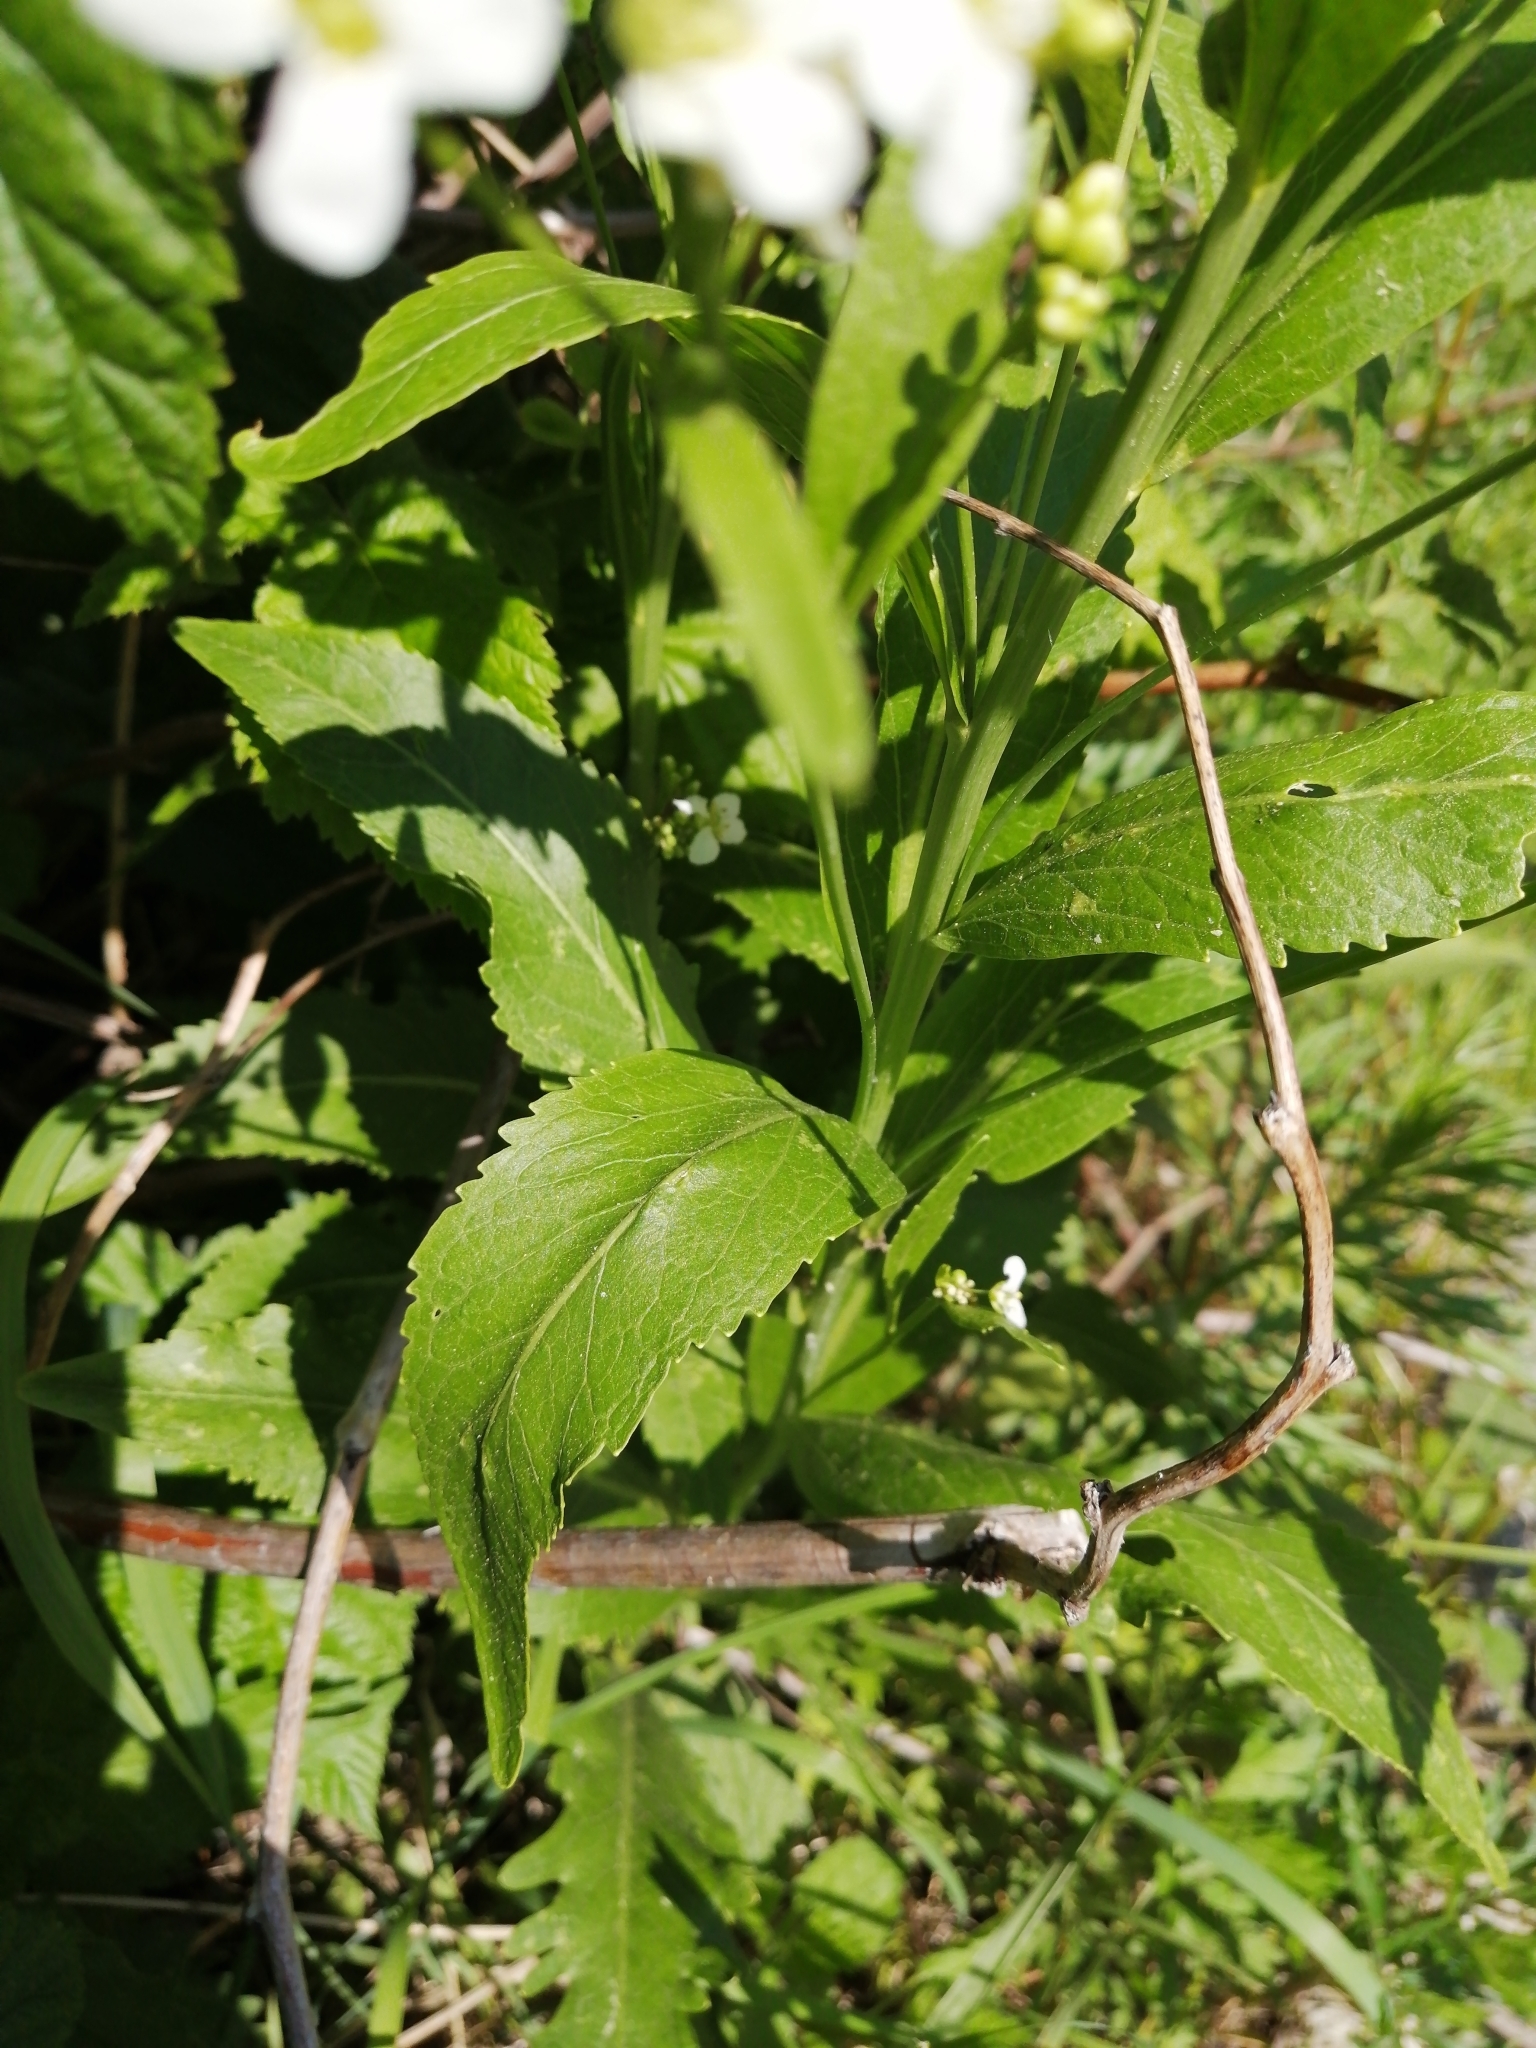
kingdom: Plantae
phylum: Tracheophyta
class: Magnoliopsida
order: Brassicales
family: Brassicaceae
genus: Armoracia
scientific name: Armoracia rusticana
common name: Horseradish
